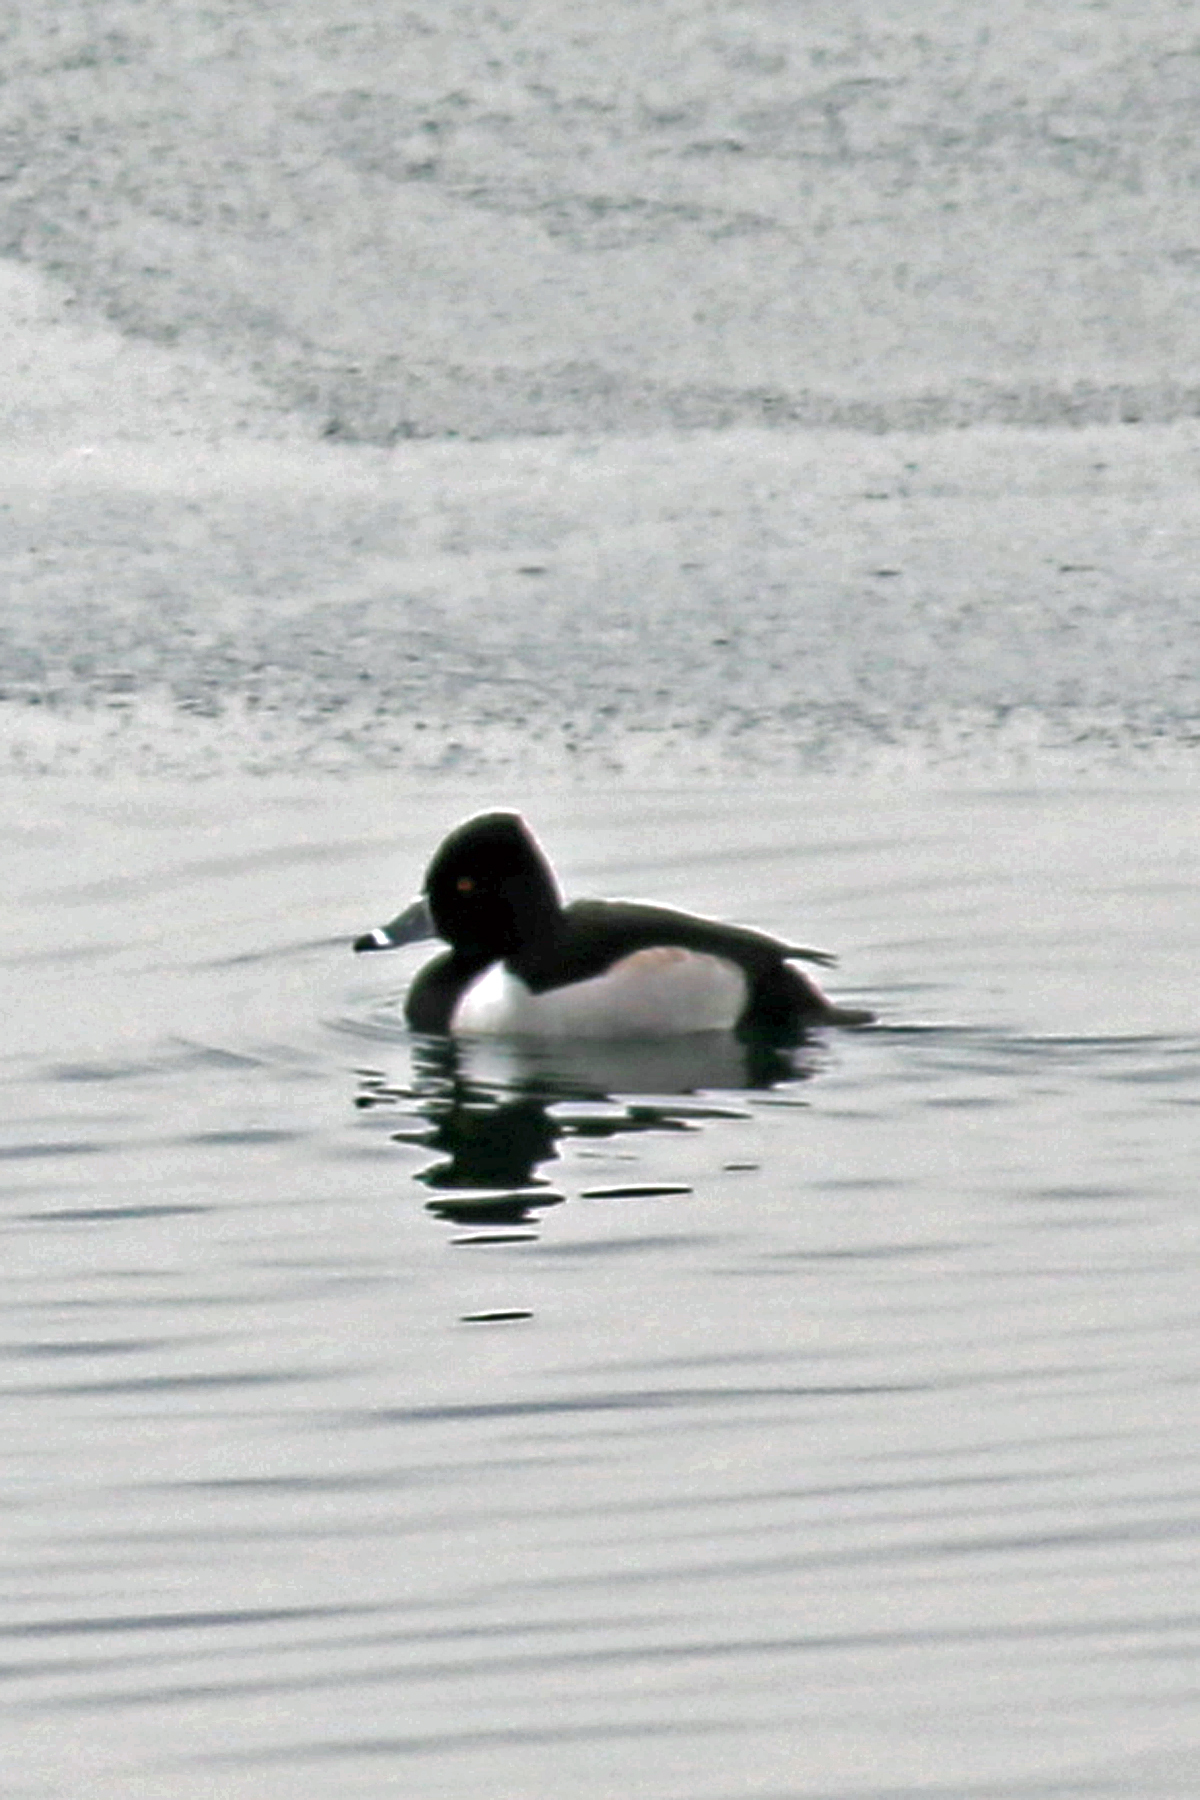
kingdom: Animalia
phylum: Chordata
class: Aves
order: Anseriformes
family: Anatidae
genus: Aythya
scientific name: Aythya collaris
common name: Ring-necked duck
